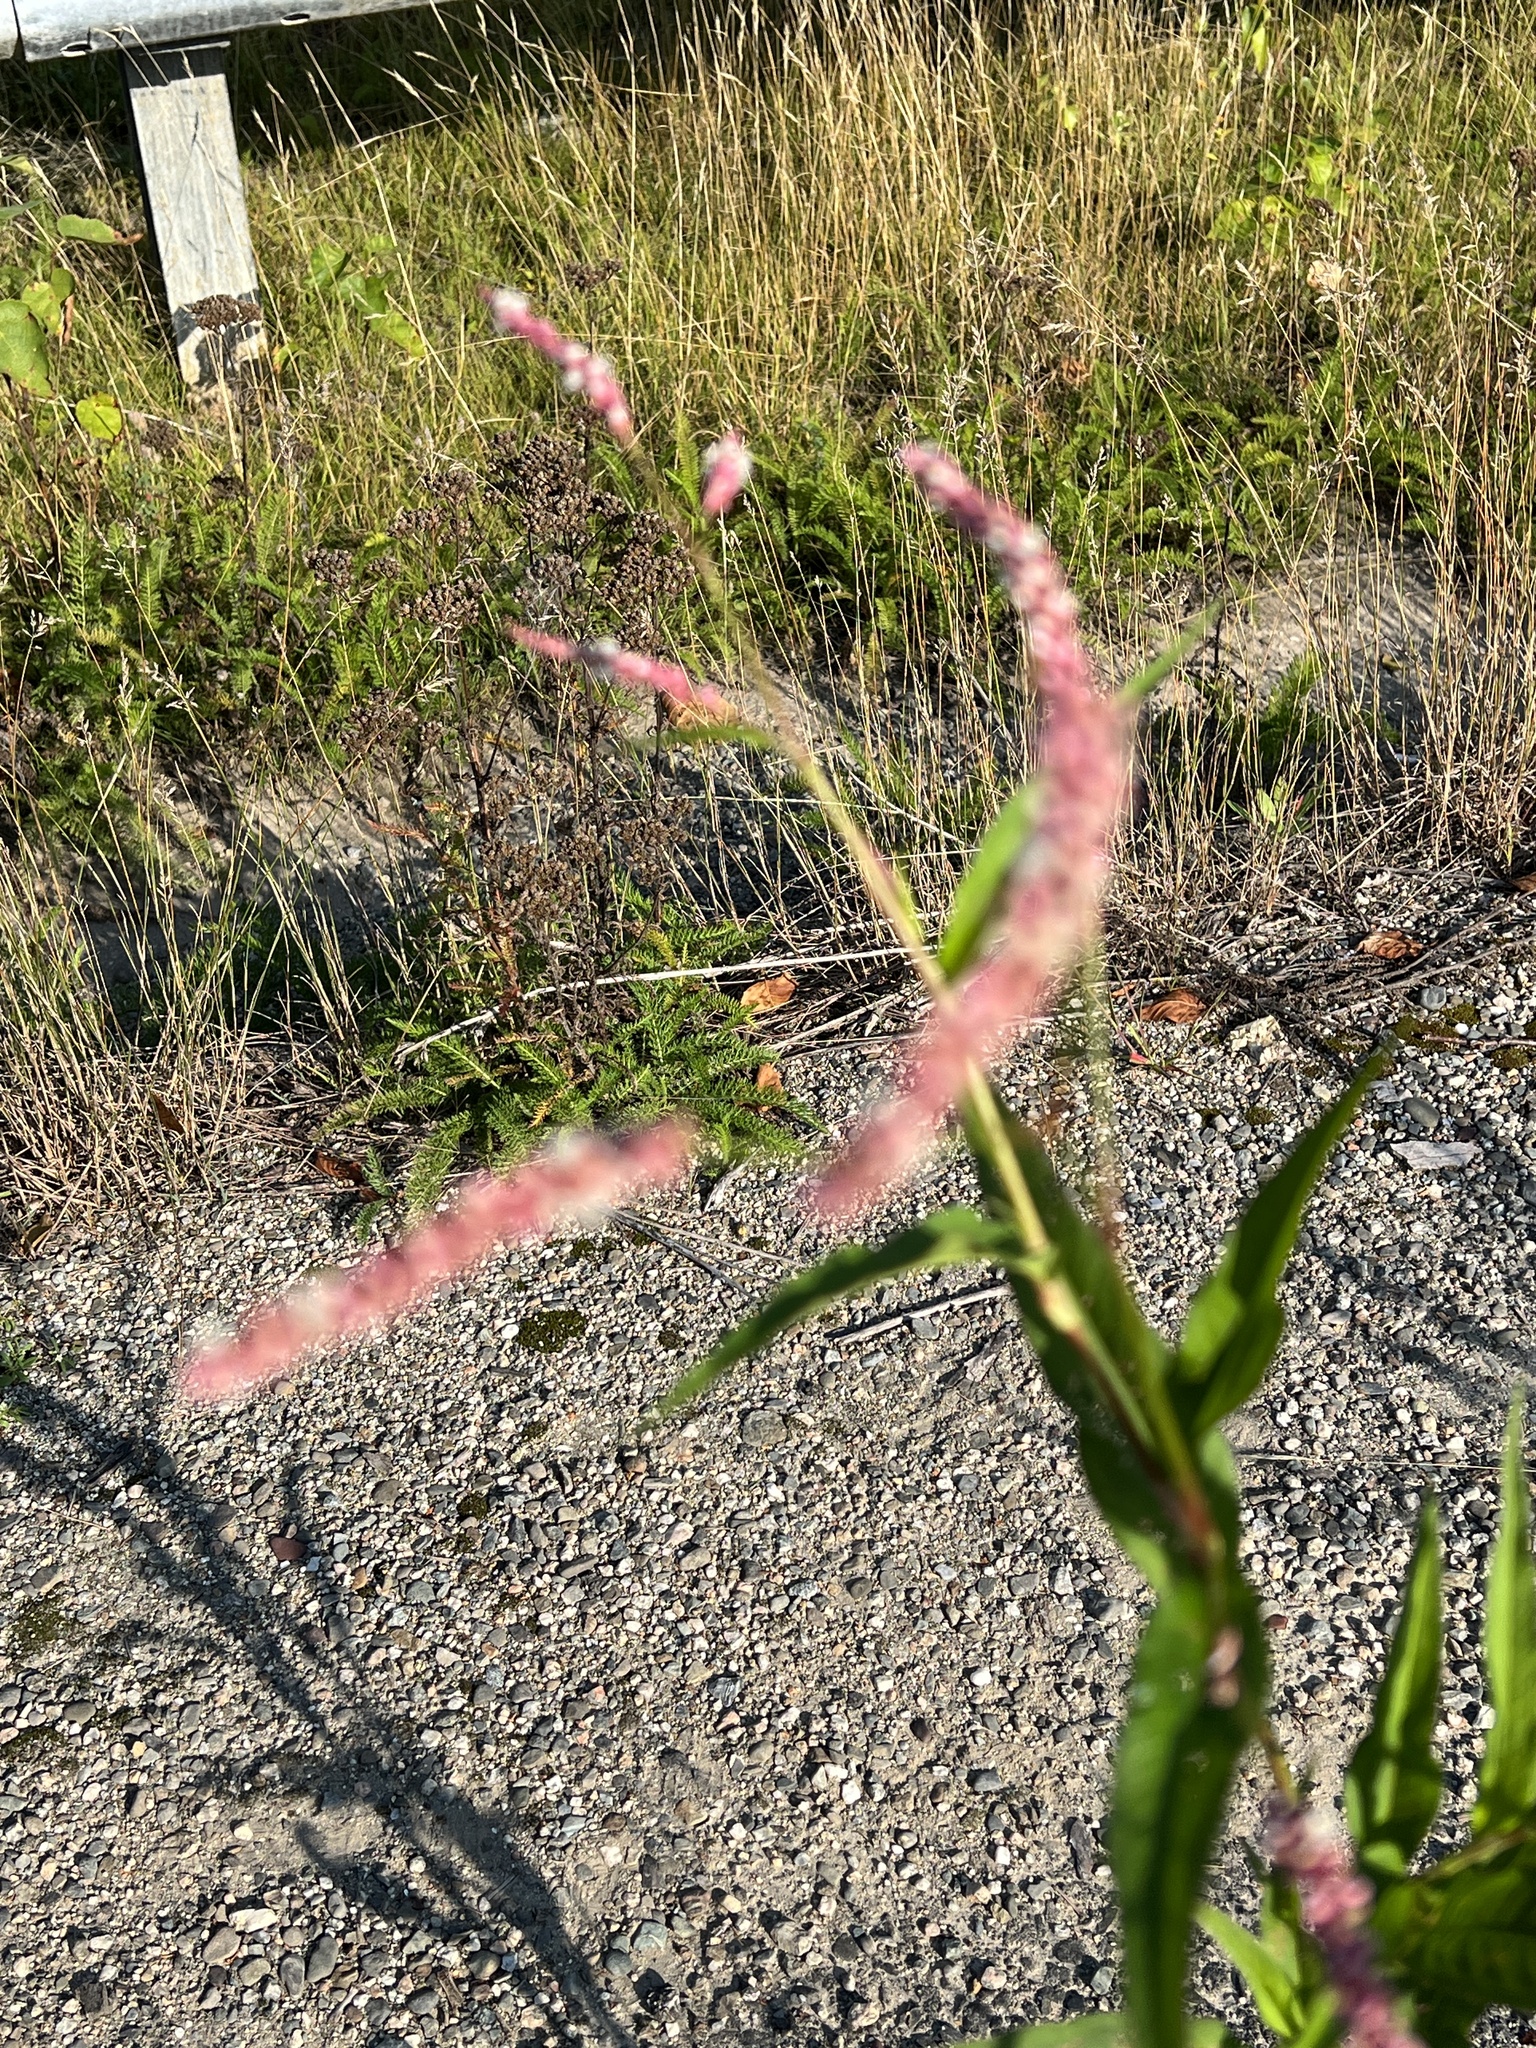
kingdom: Plantae
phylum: Tracheophyta
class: Magnoliopsida
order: Caryophyllales
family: Polygonaceae
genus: Persicaria
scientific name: Persicaria extremiorientalis
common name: Far-eastern smartweed
